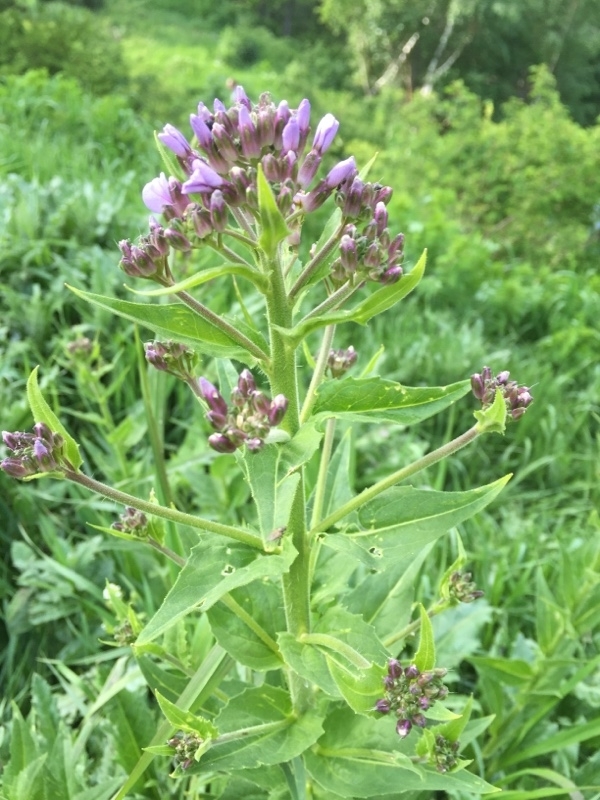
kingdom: Plantae
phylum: Tracheophyta
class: Magnoliopsida
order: Brassicales
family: Brassicaceae
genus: Hesperis
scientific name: Hesperis matronalis
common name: Dame's-violet
